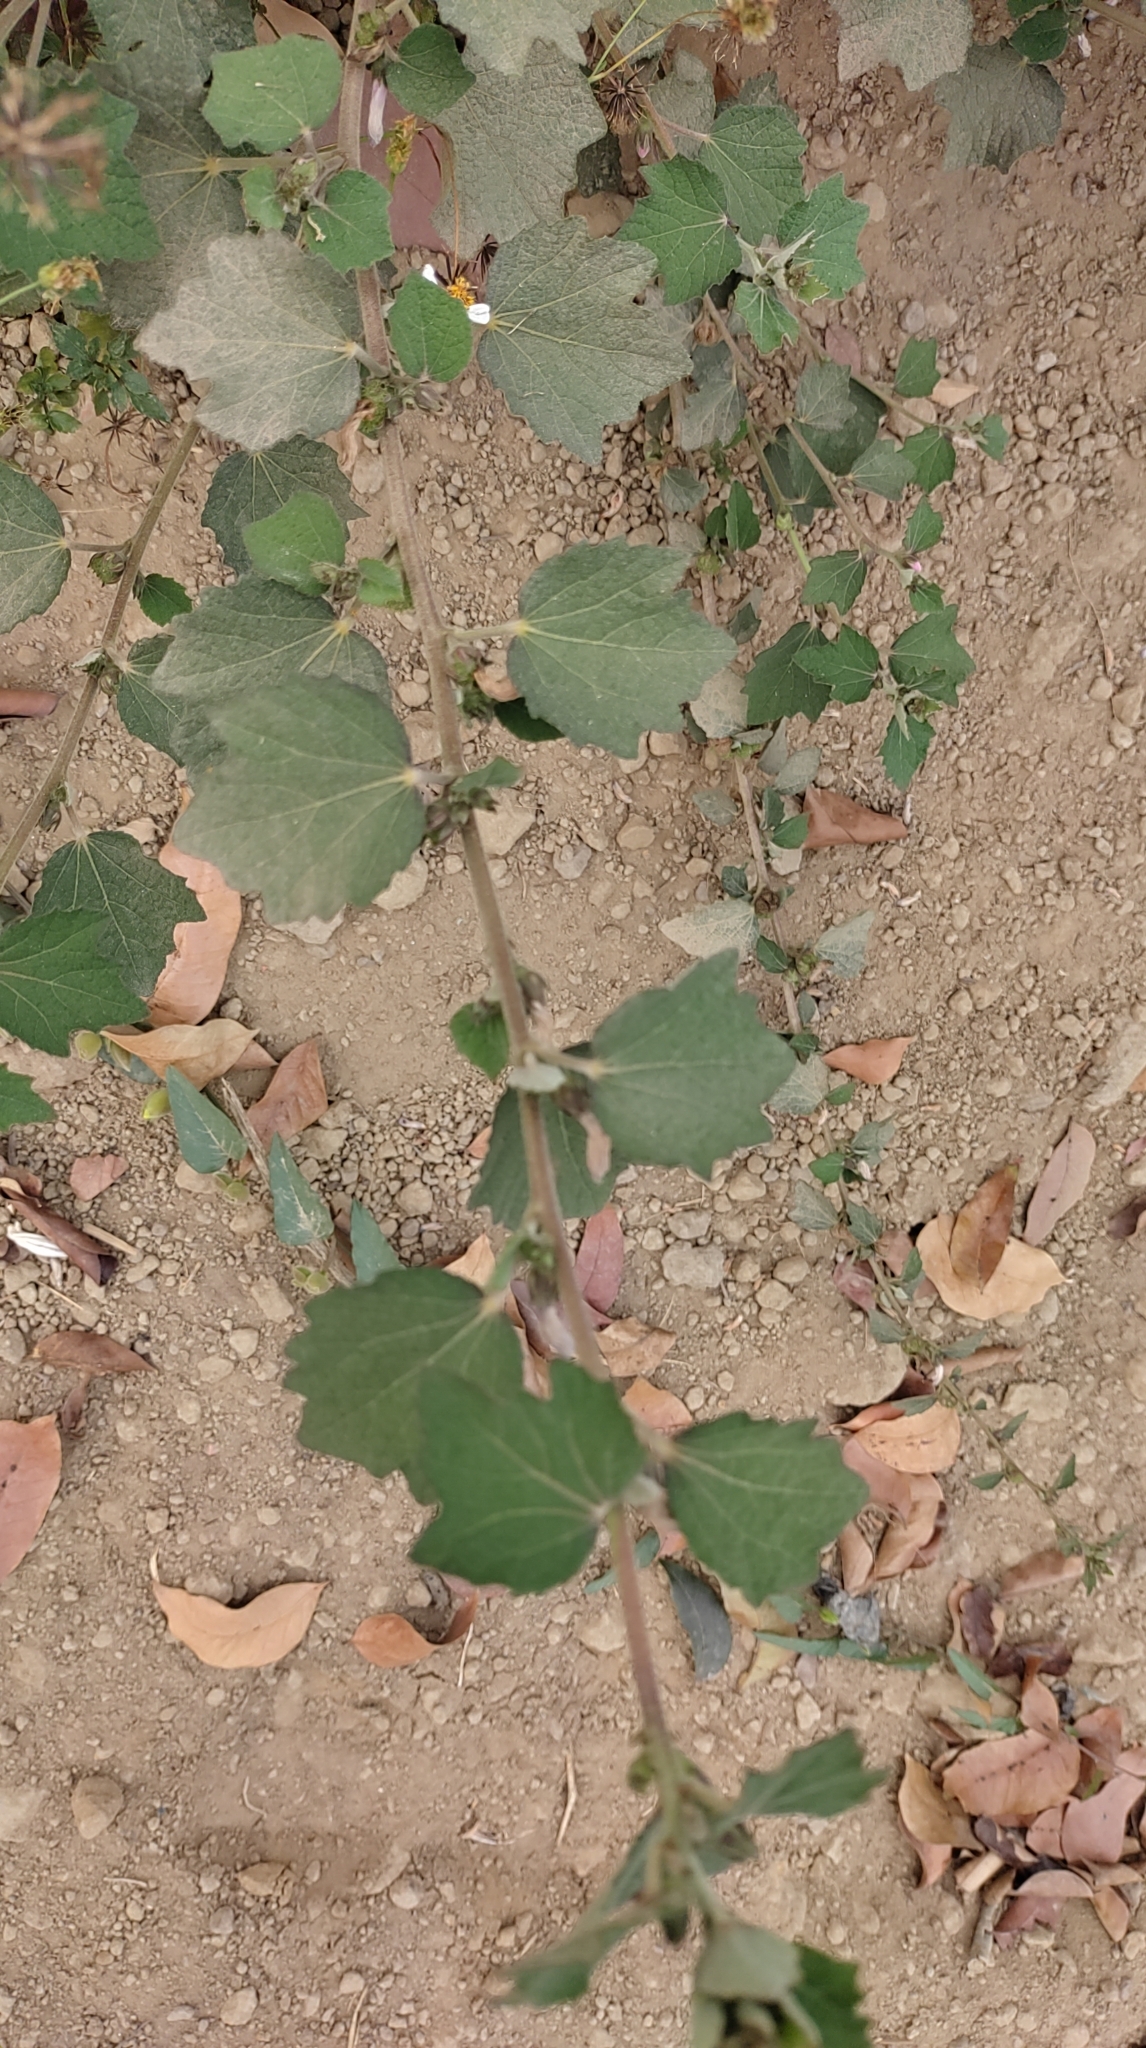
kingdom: Plantae
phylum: Tracheophyta
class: Magnoliopsida
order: Malvales
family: Malvaceae
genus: Urena
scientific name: Urena lobata
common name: Caesarweed
